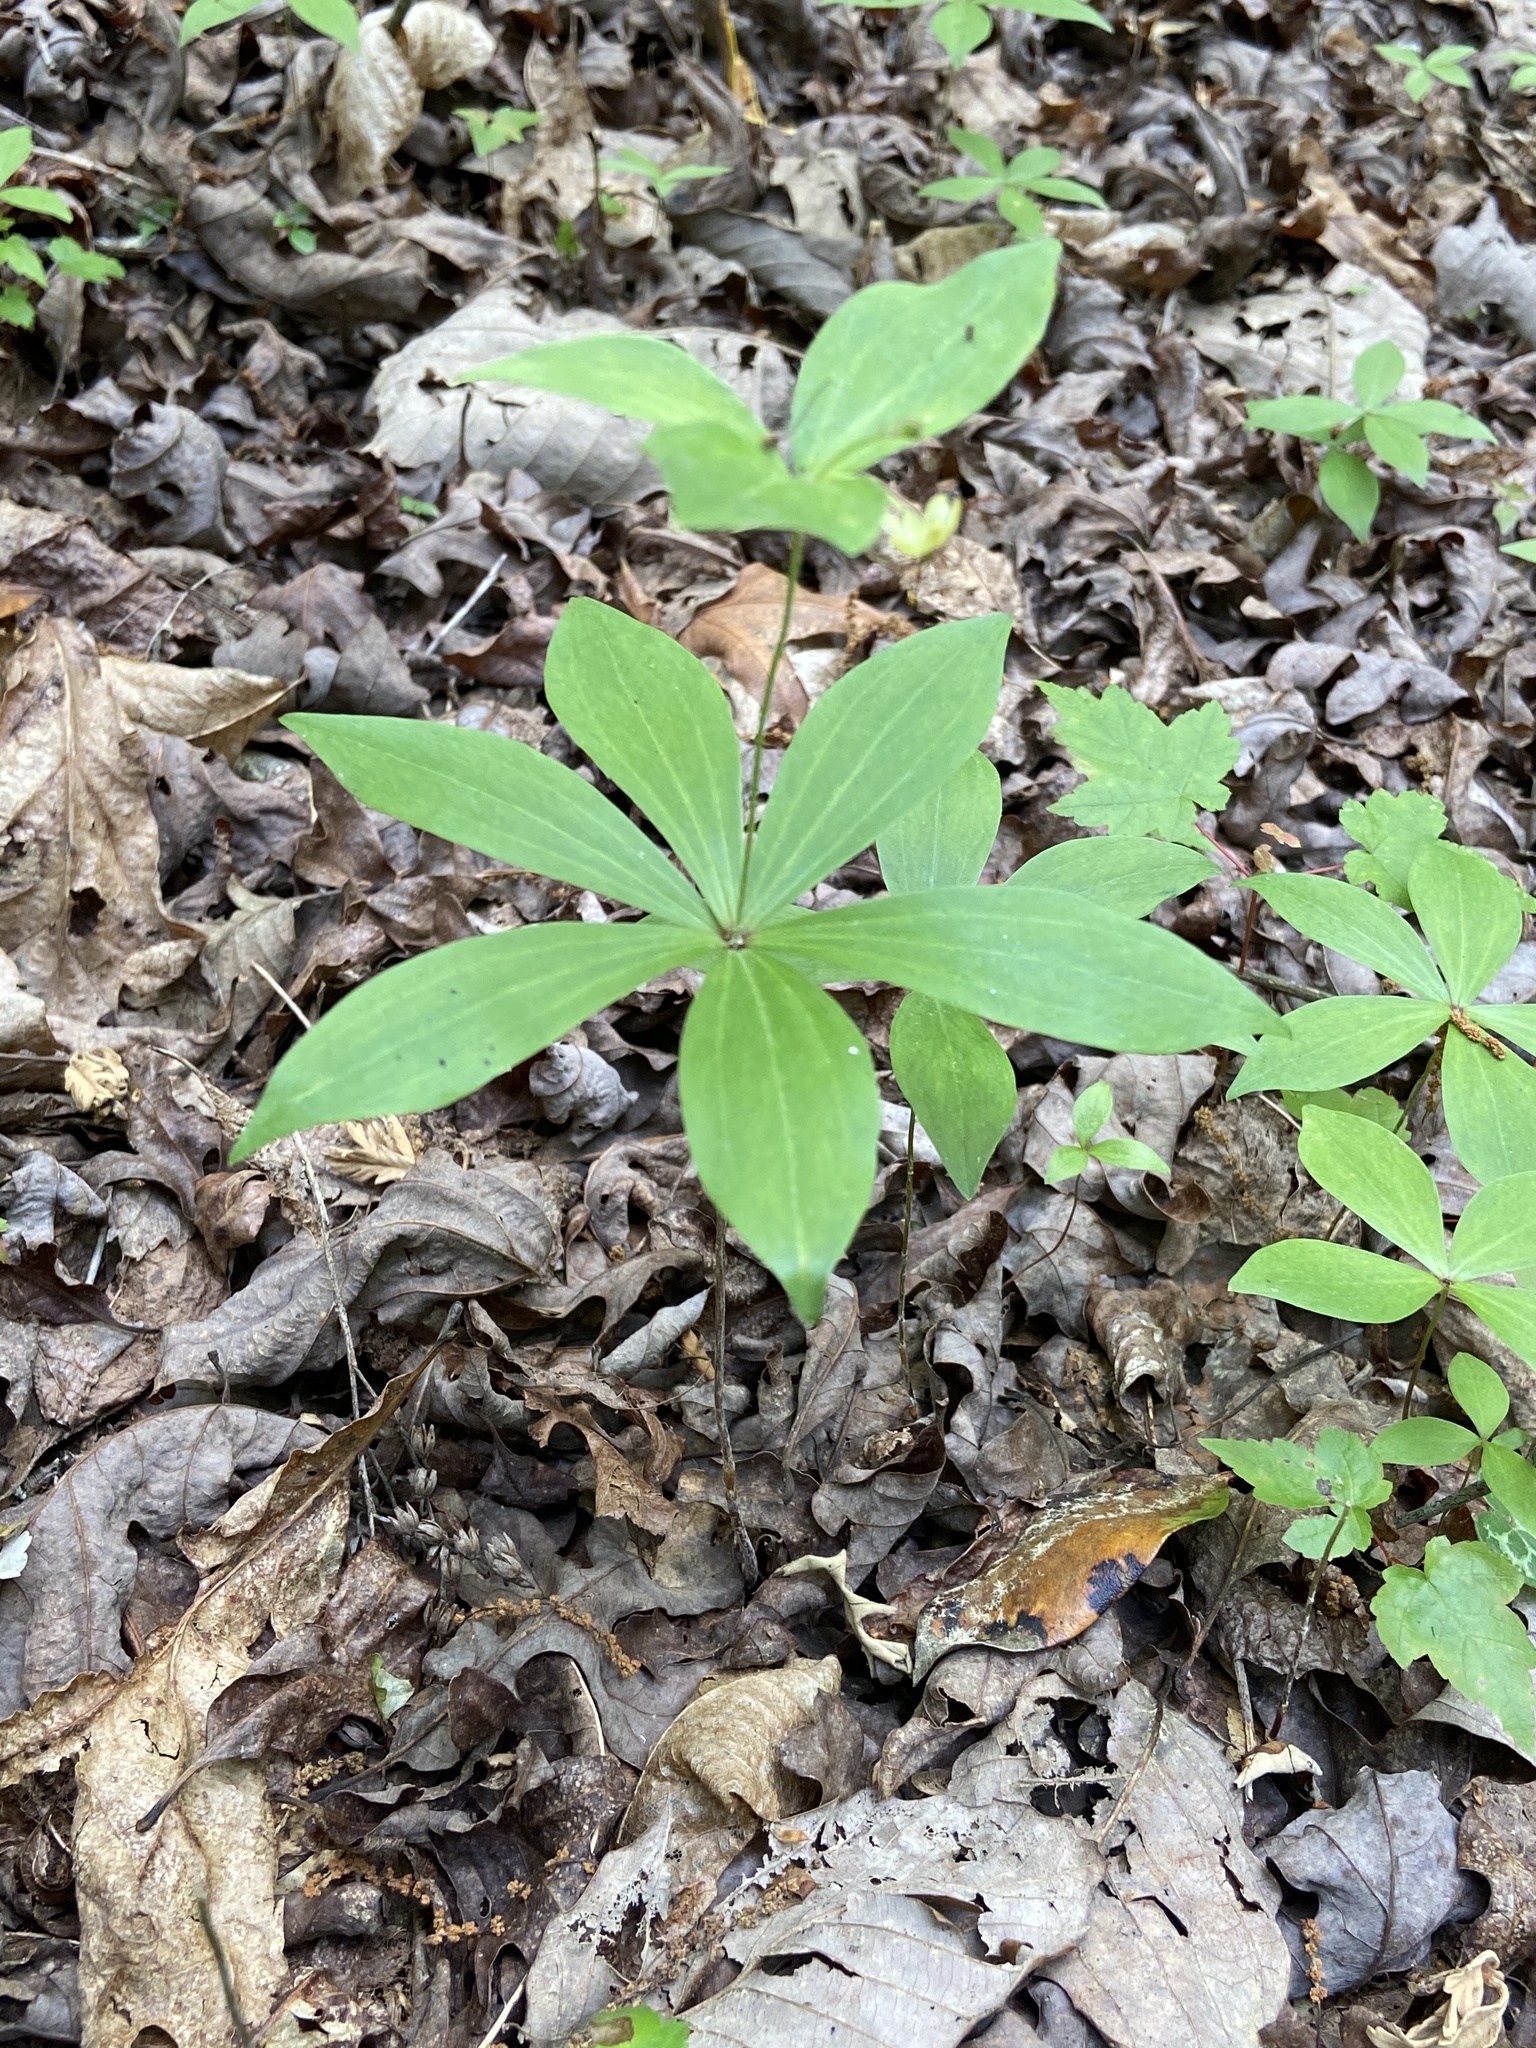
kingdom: Plantae
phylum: Tracheophyta
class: Liliopsida
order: Liliales
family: Liliaceae
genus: Medeola
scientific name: Medeola virginiana
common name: Indian cucumber-root
